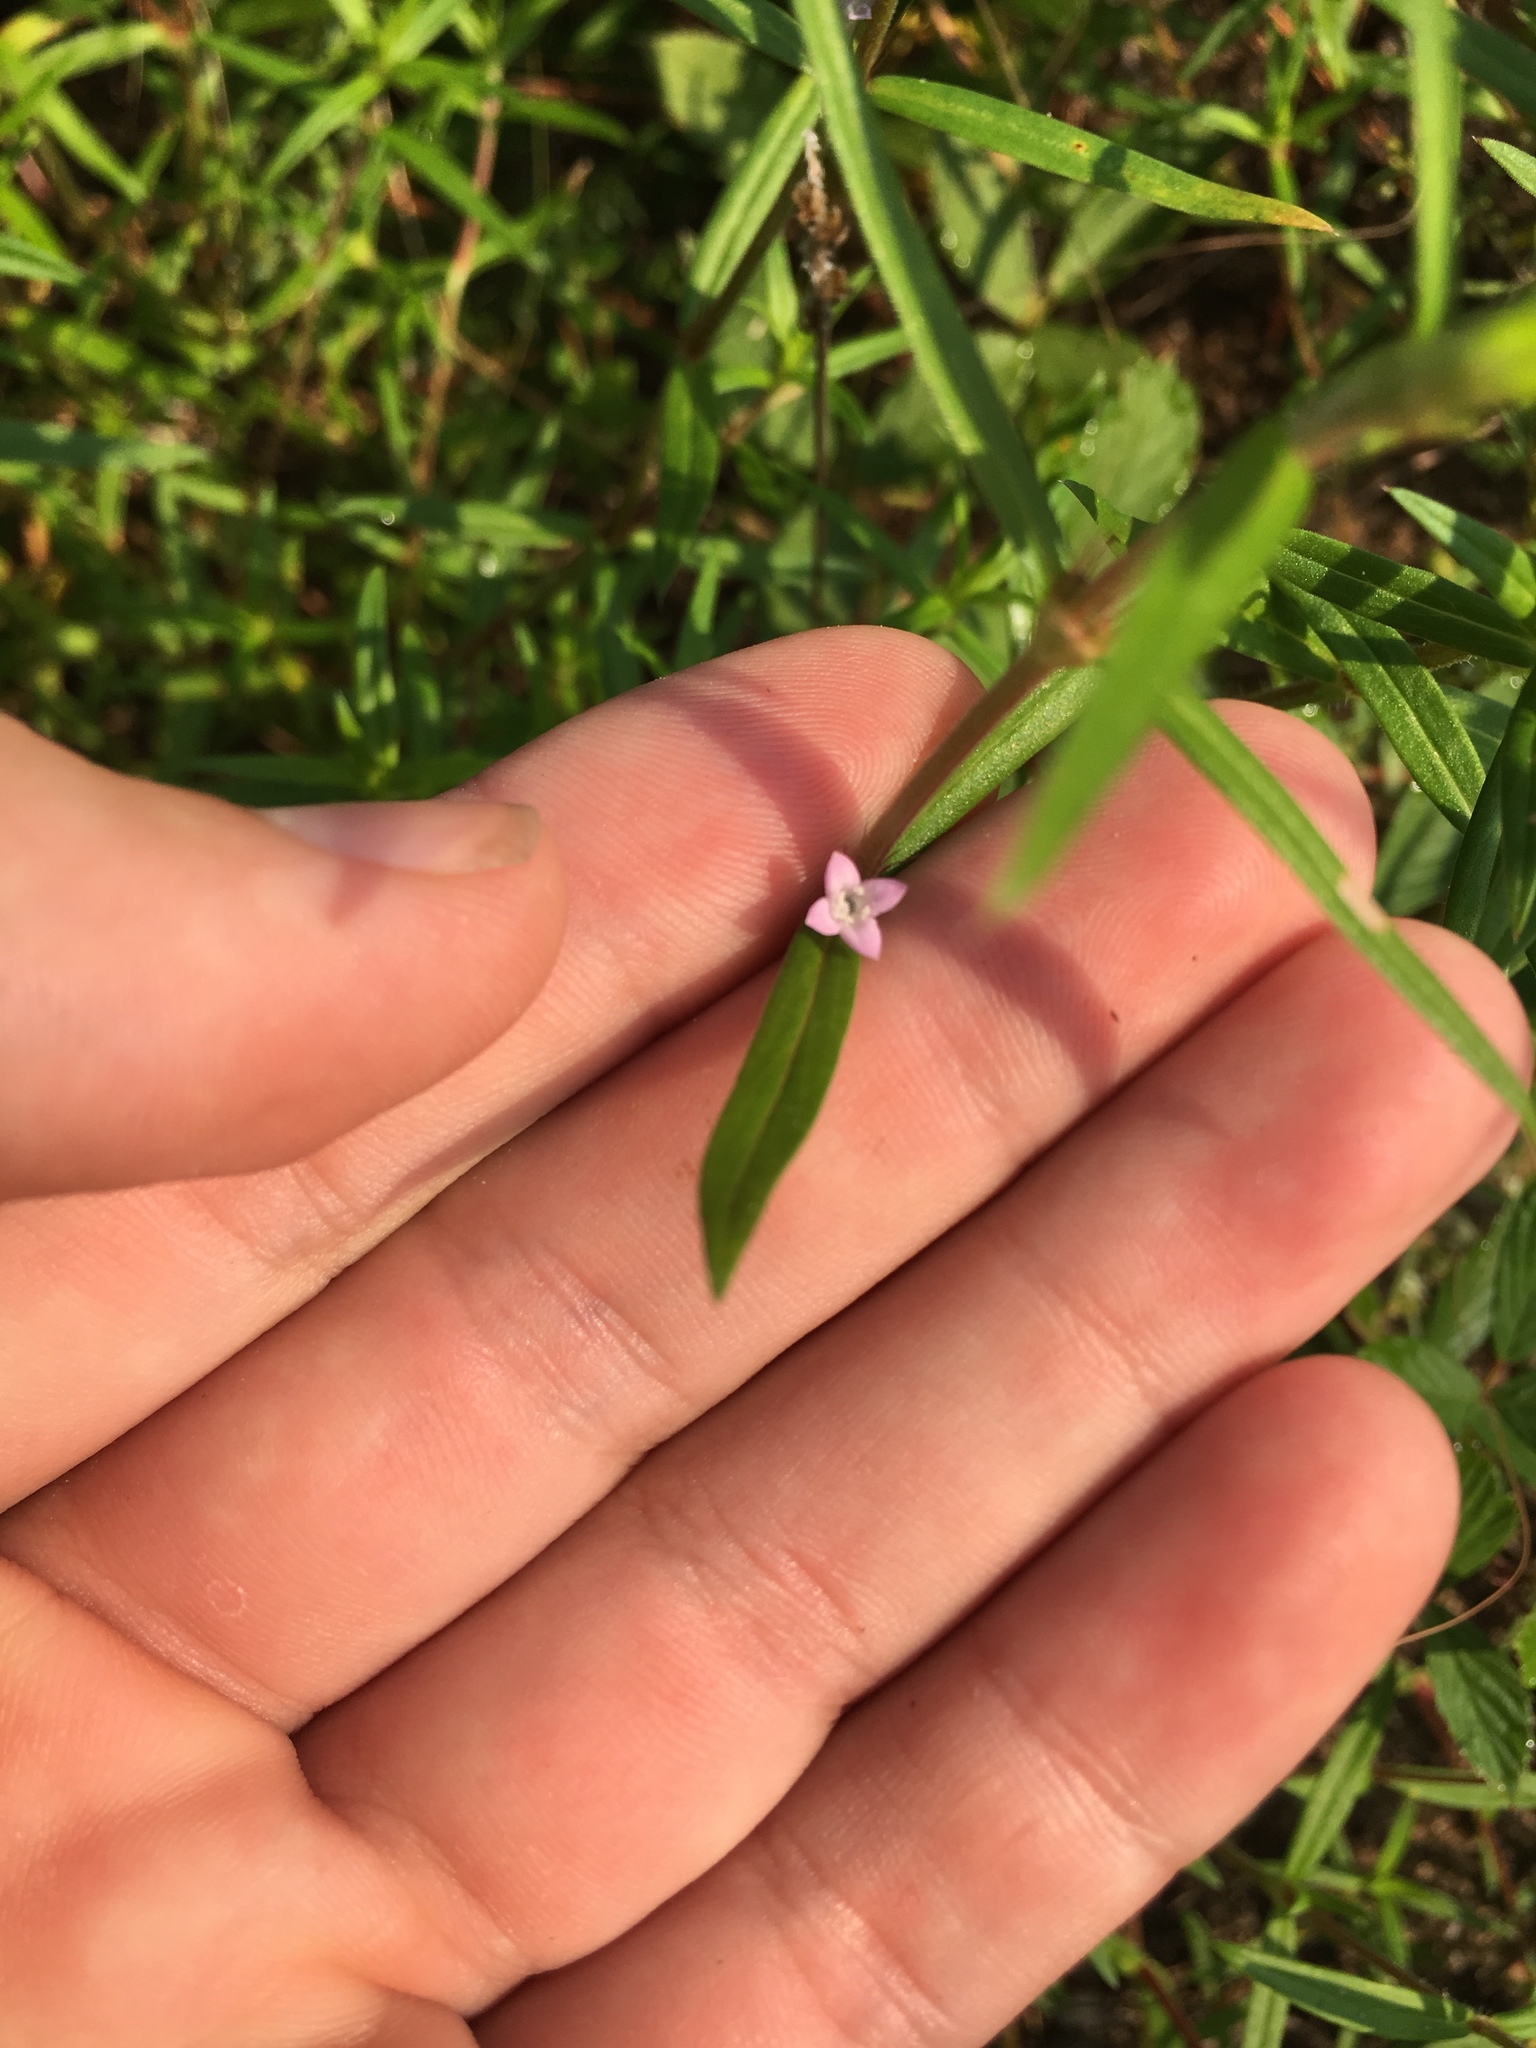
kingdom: Plantae
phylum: Tracheophyta
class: Magnoliopsida
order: Gentianales
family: Rubiaceae
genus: Hexasepalum
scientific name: Hexasepalum teres
